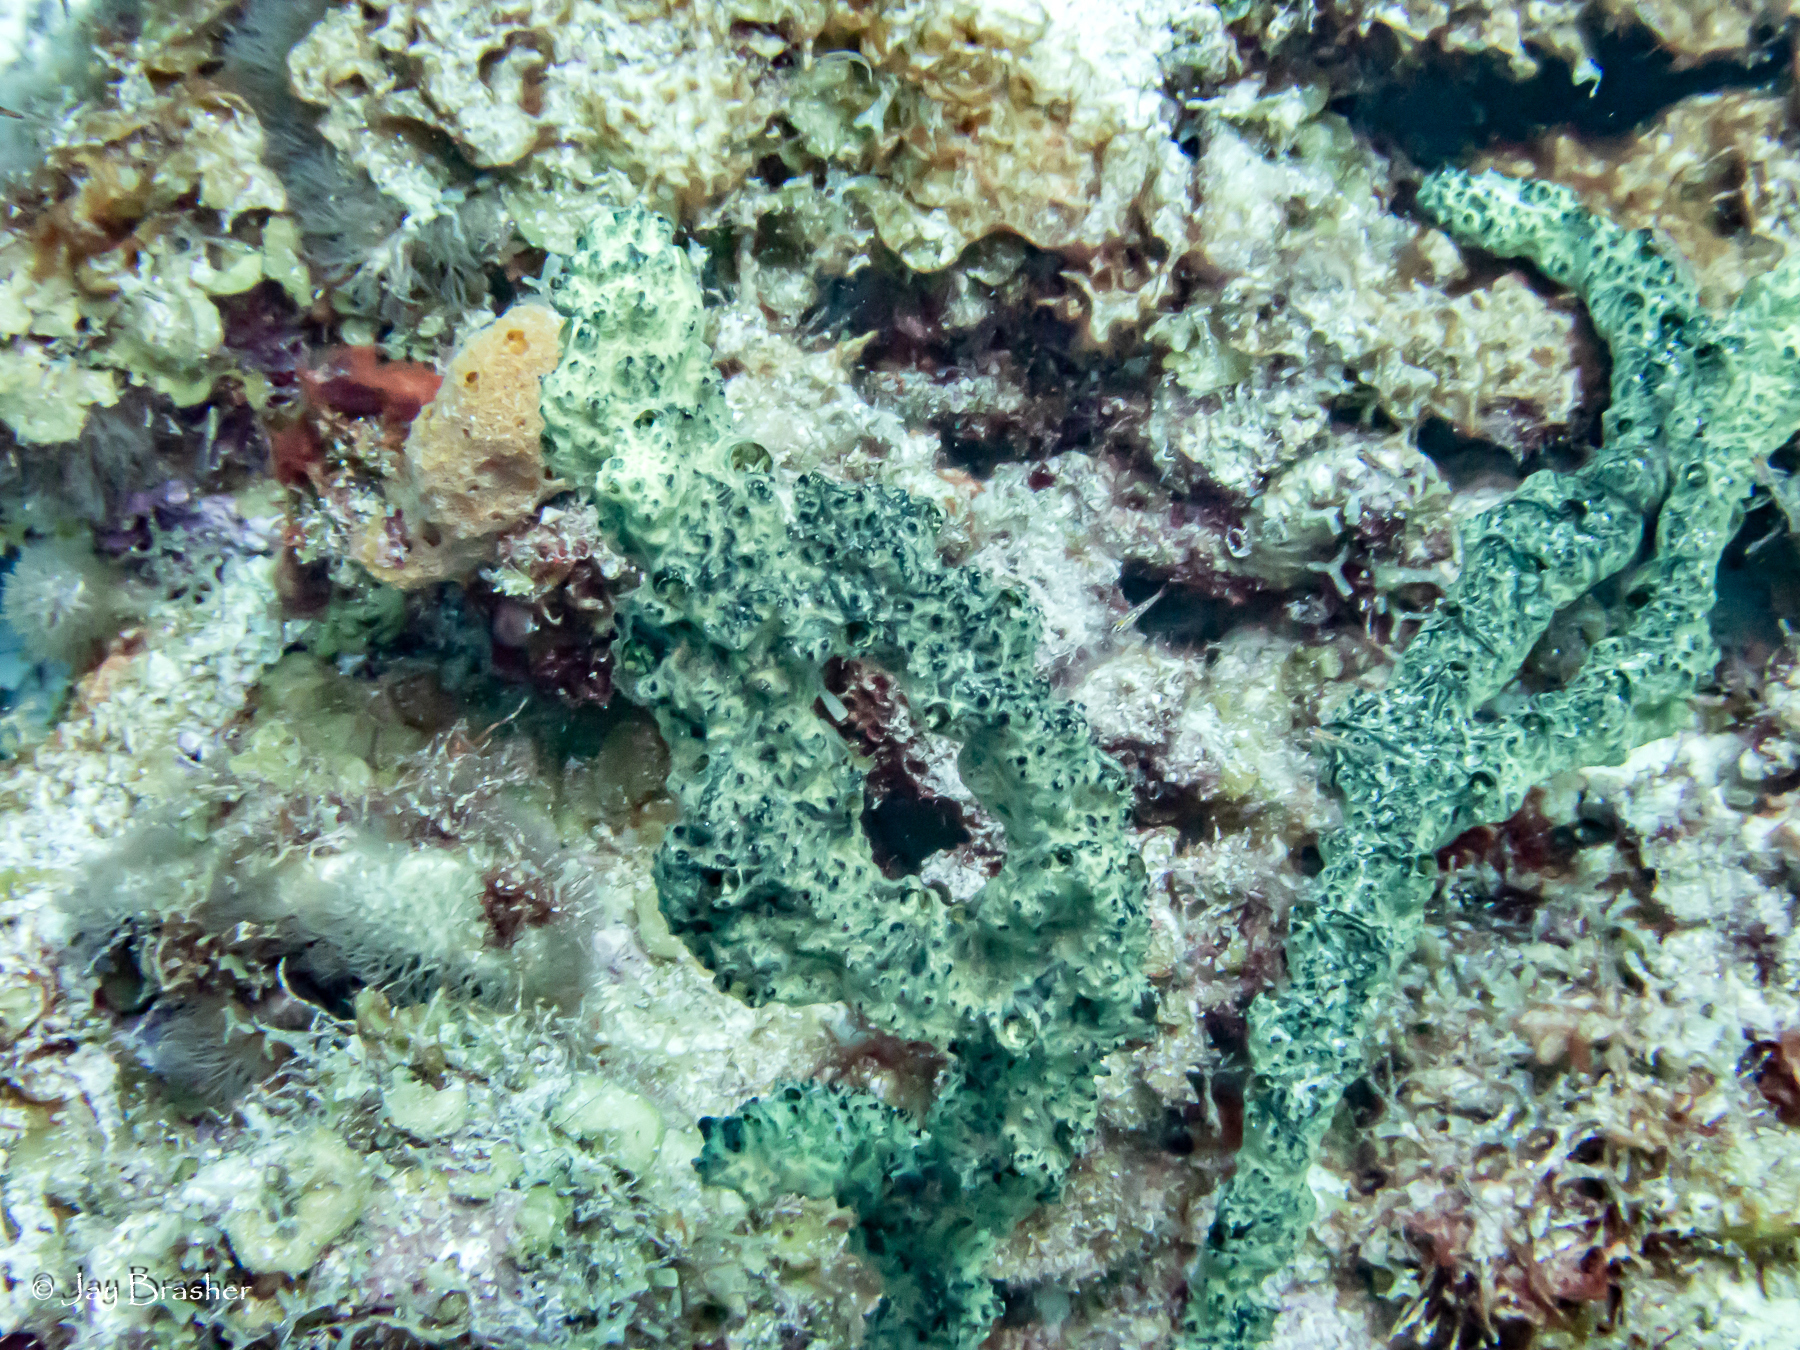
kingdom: Animalia
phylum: Porifera
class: Demospongiae
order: Poecilosclerida
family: Iotrochotidae
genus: Iotrochota
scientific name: Iotrochota birotulata
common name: Purple bleeding sponge
